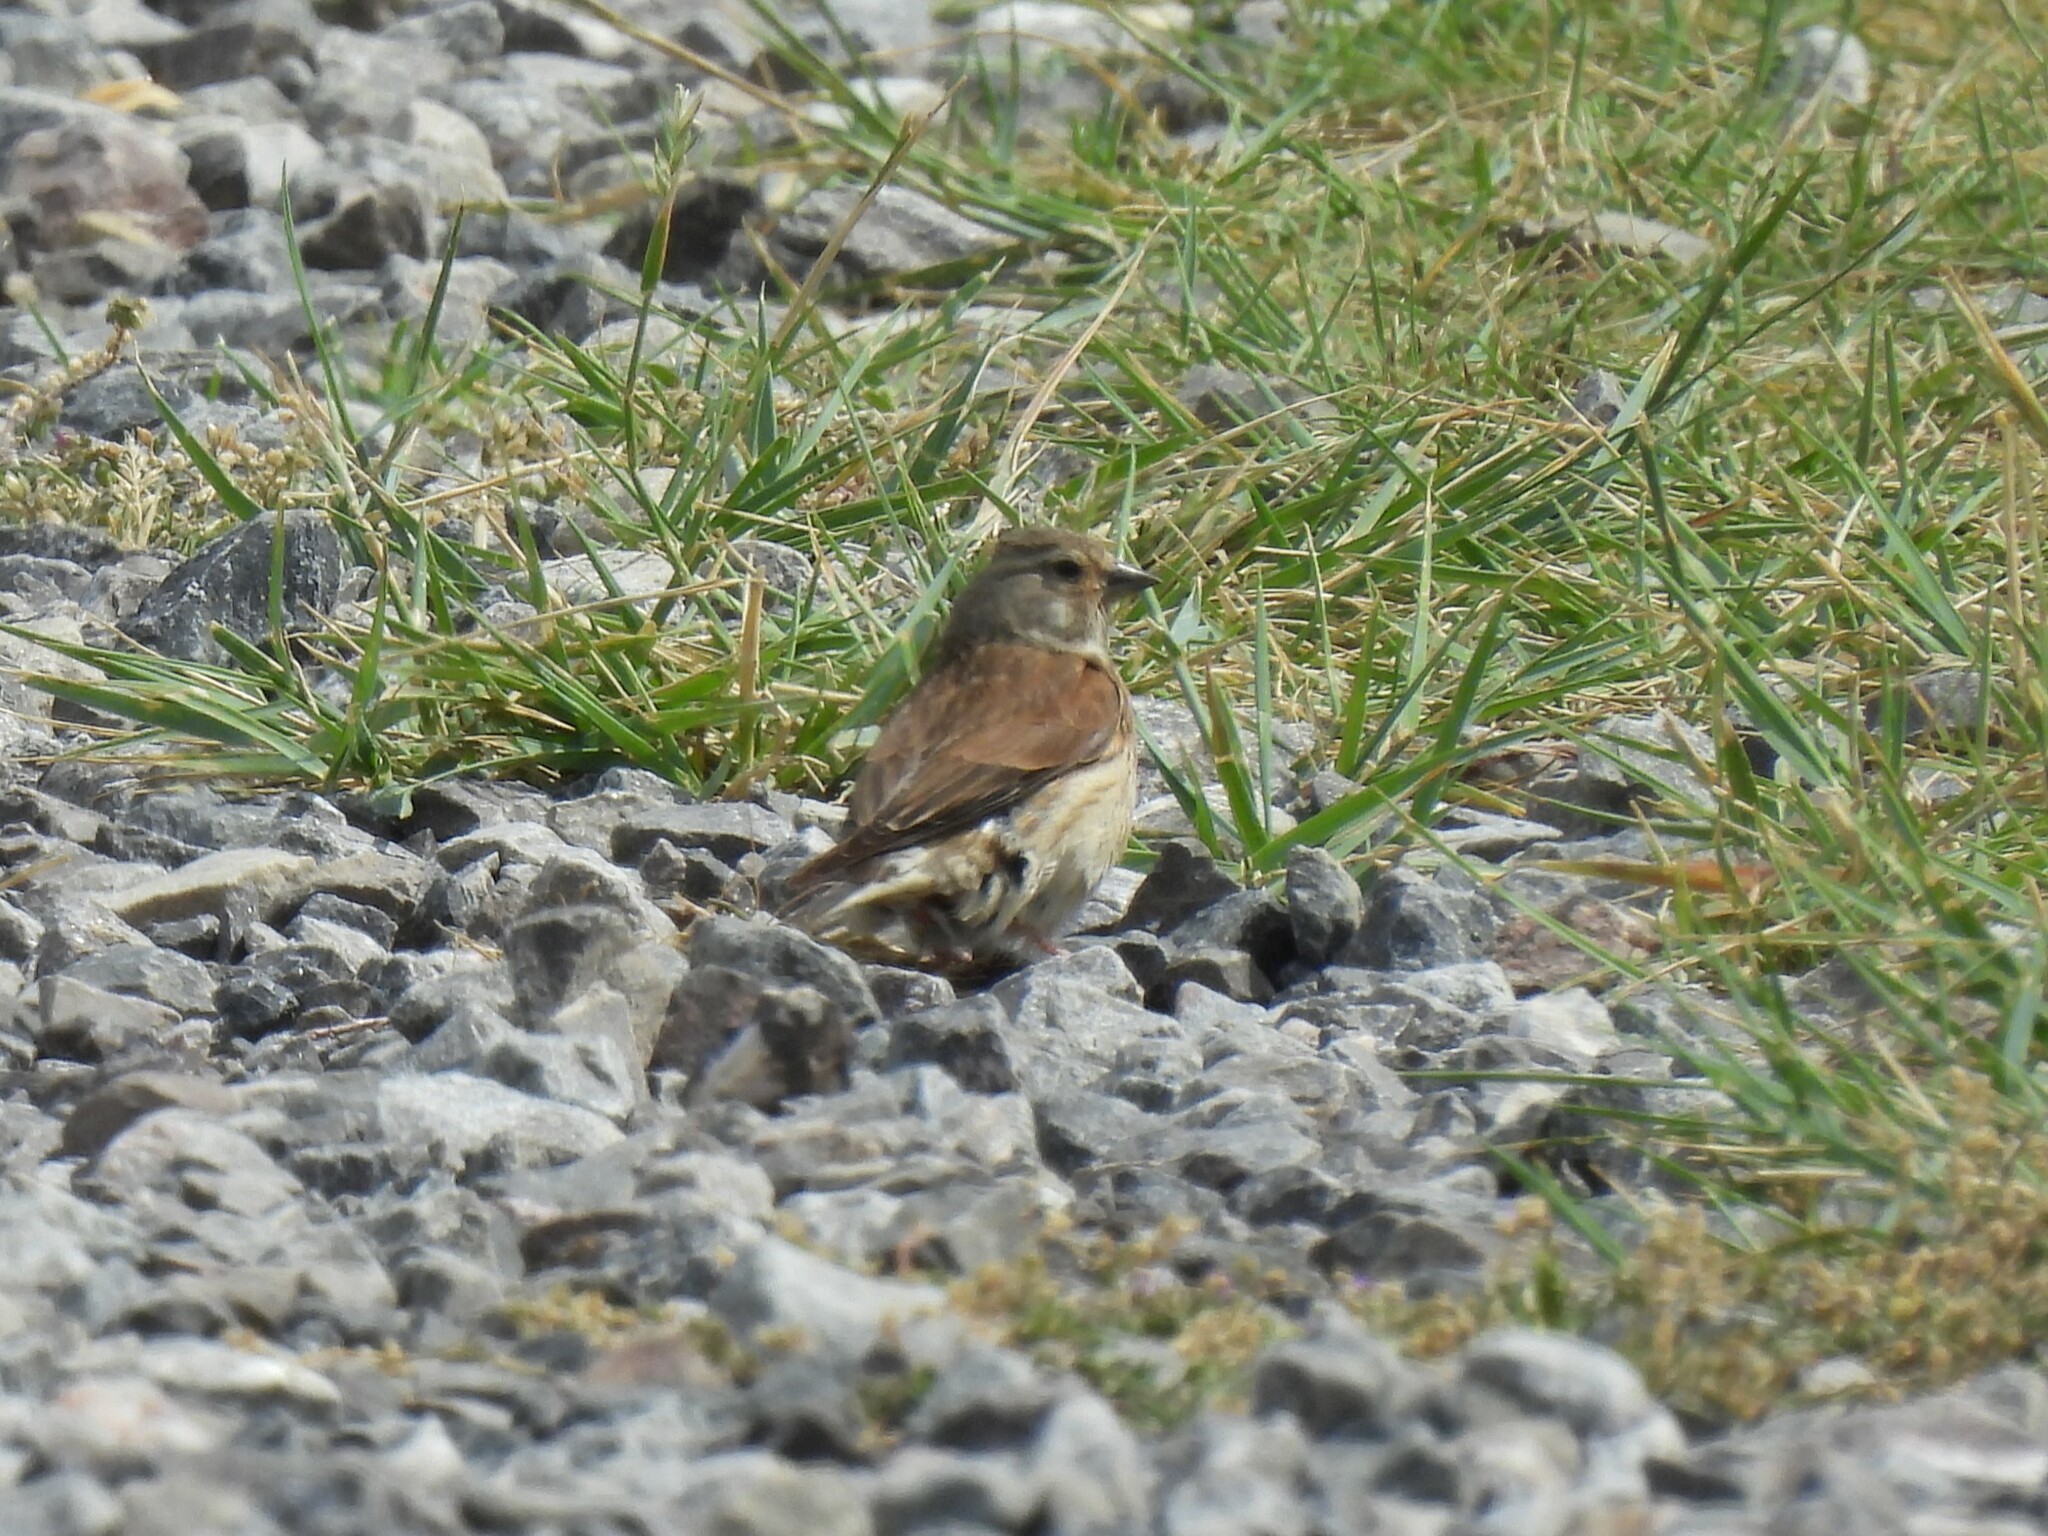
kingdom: Animalia
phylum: Chordata
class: Aves
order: Passeriformes
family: Fringillidae
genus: Linaria
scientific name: Linaria cannabina
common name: Common linnet
